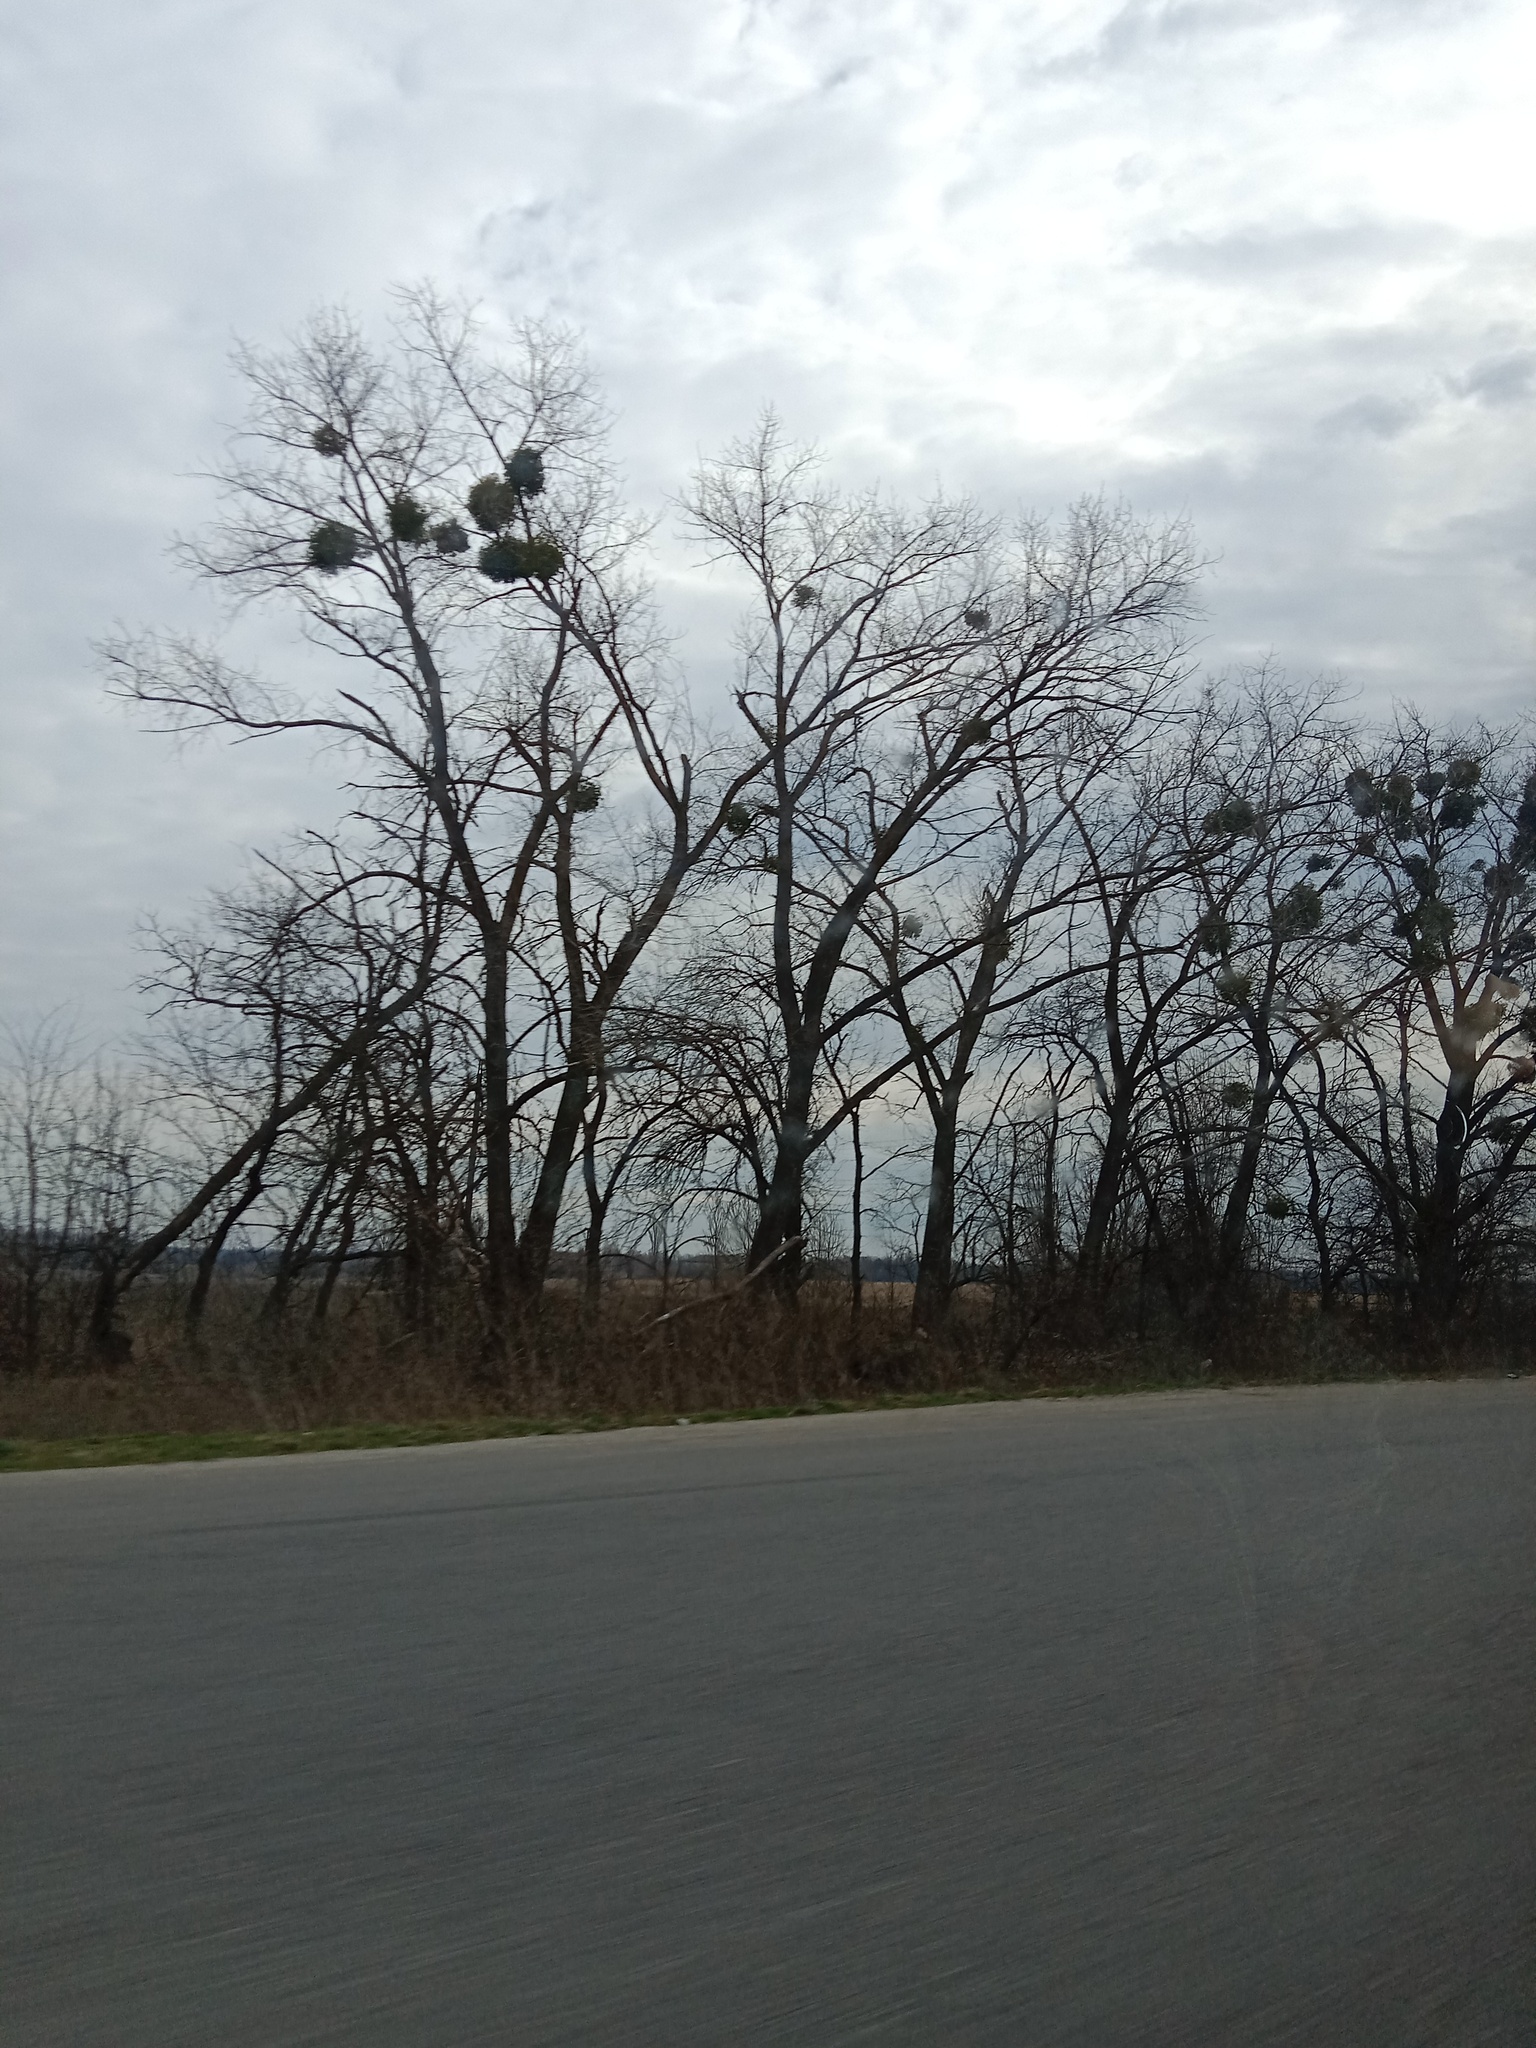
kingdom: Plantae
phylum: Tracheophyta
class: Magnoliopsida
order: Santalales
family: Viscaceae
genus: Viscum
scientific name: Viscum album
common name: Mistletoe
